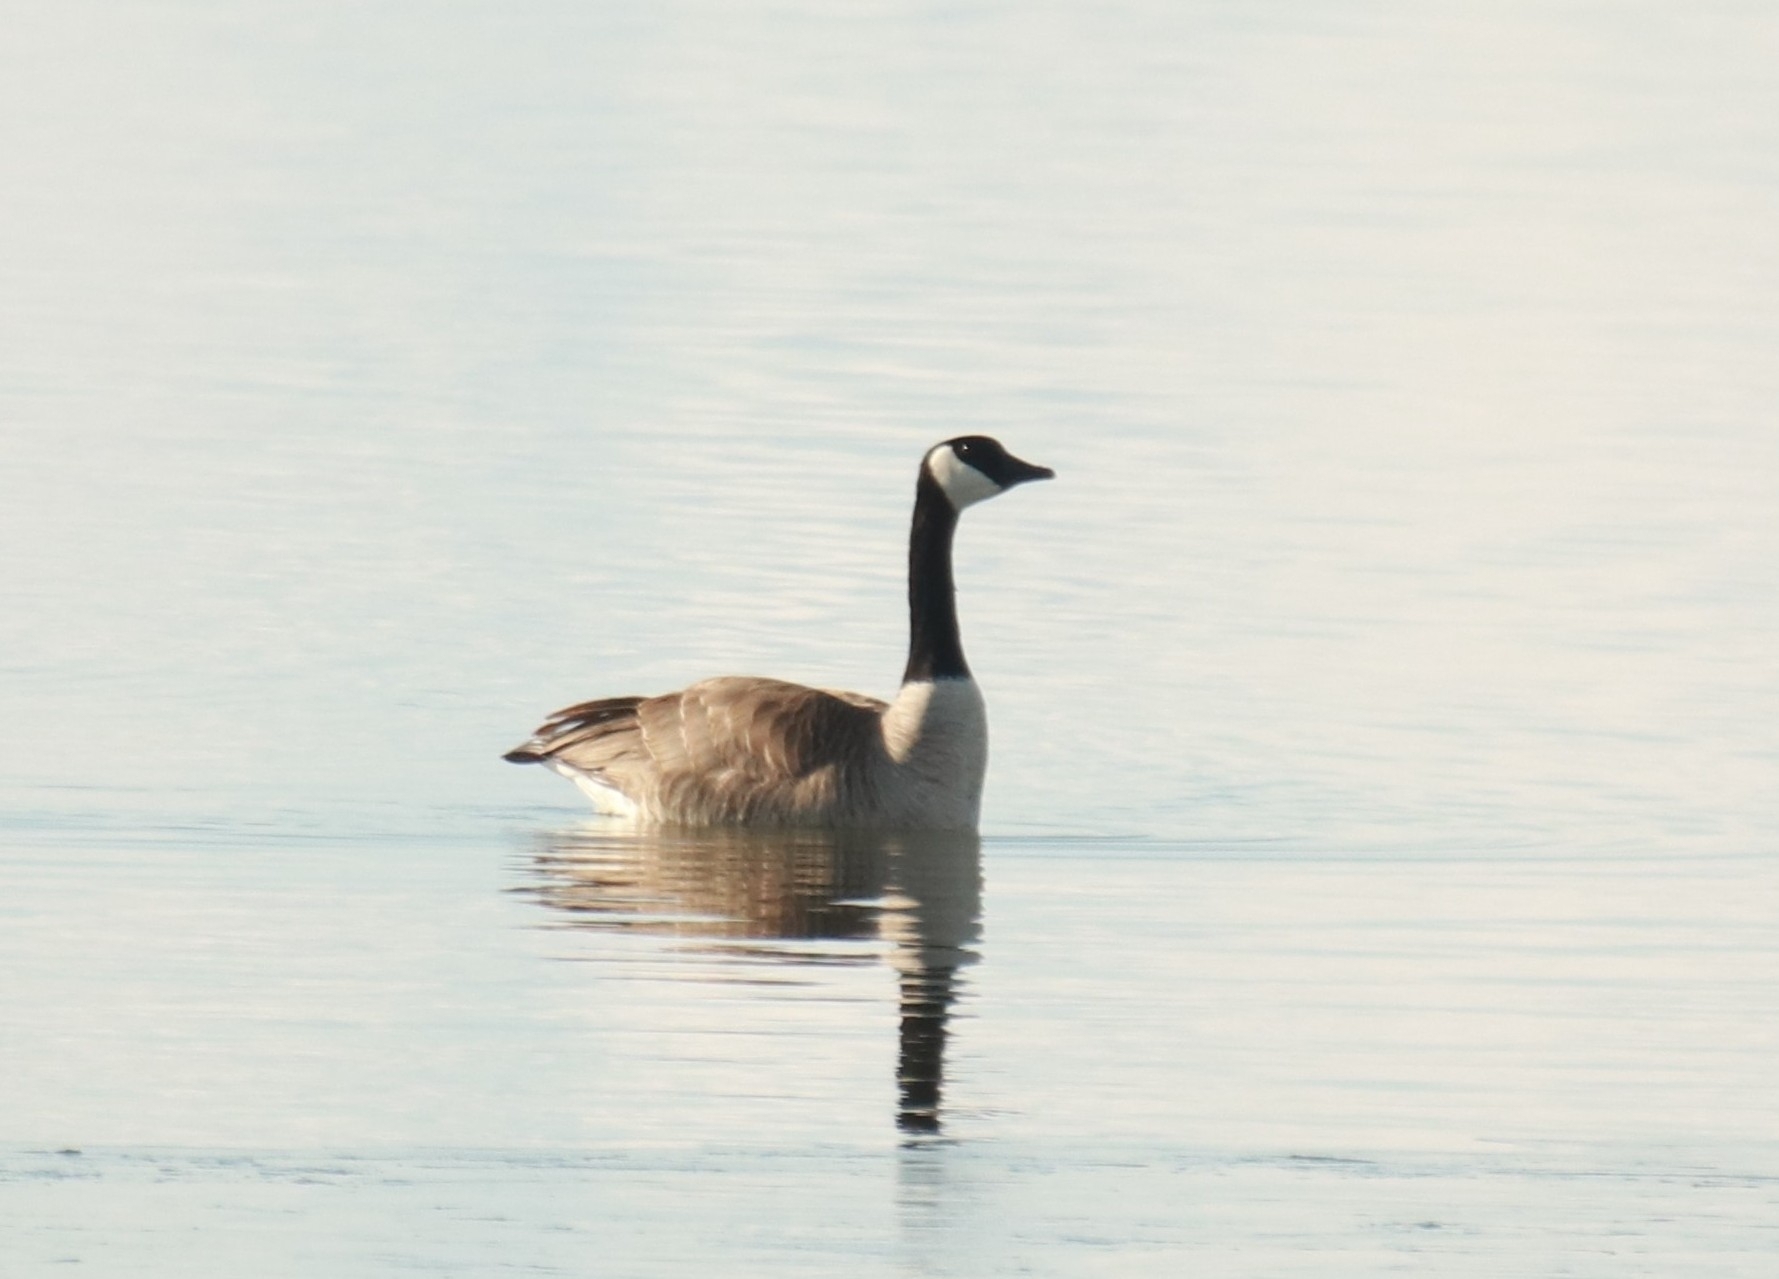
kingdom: Animalia
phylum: Chordata
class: Aves
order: Anseriformes
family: Anatidae
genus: Branta
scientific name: Branta canadensis
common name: Canada goose
